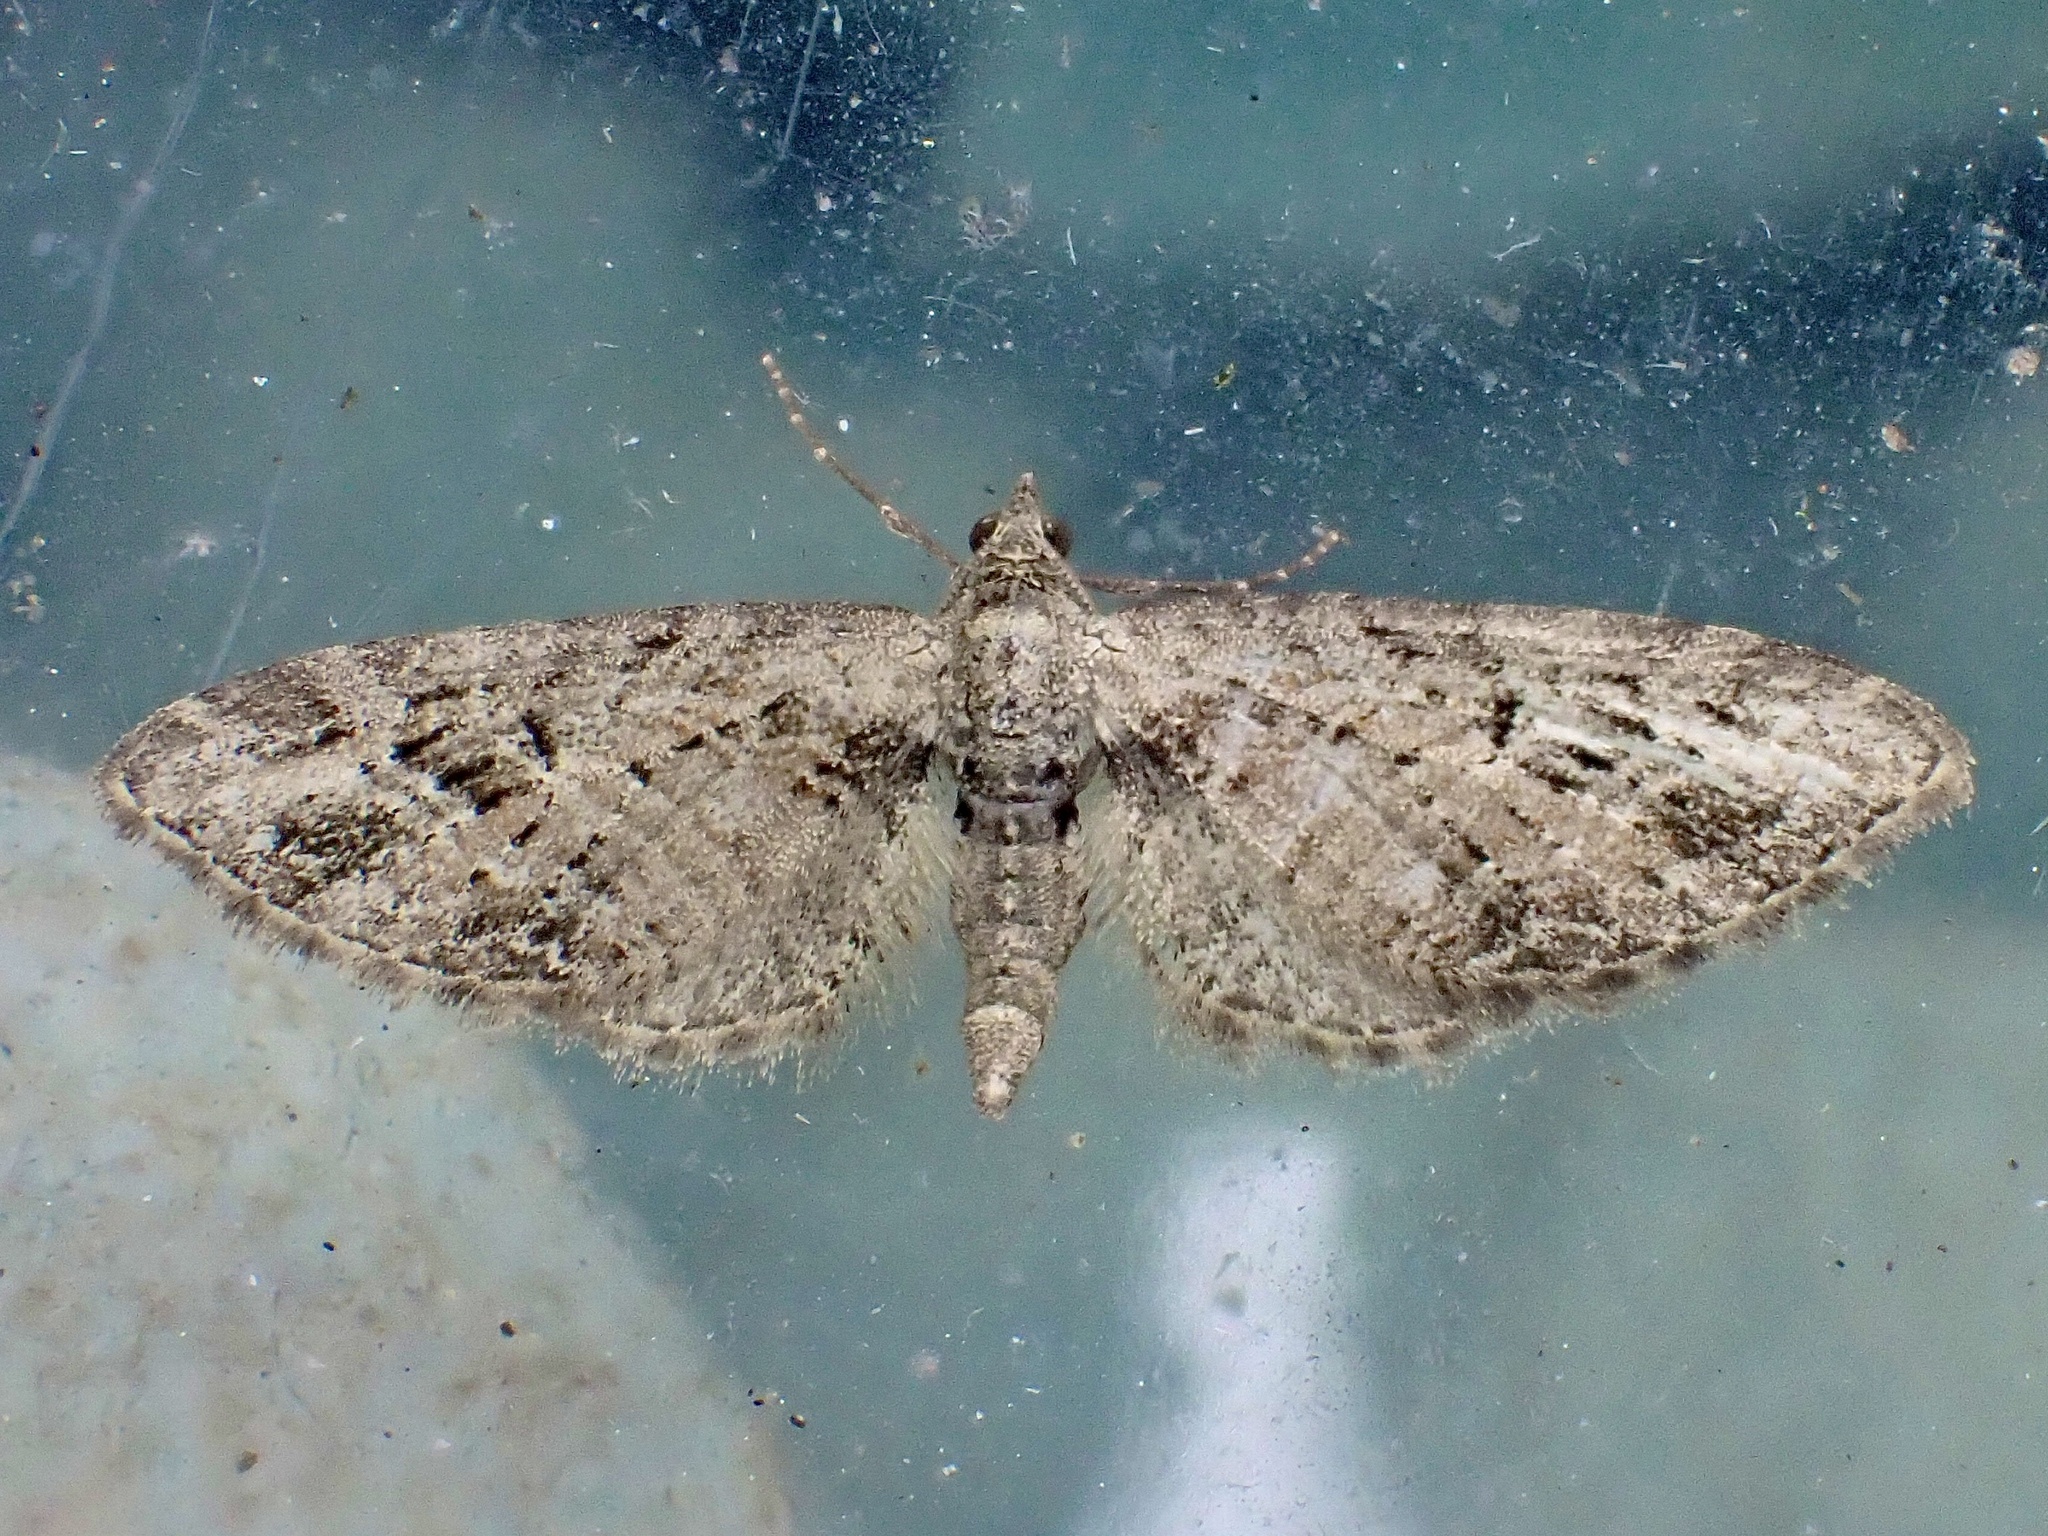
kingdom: Animalia
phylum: Arthropoda
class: Insecta
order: Lepidoptera
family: Geometridae
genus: Eupithecia
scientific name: Eupithecia exiguata
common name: Mottled pug
